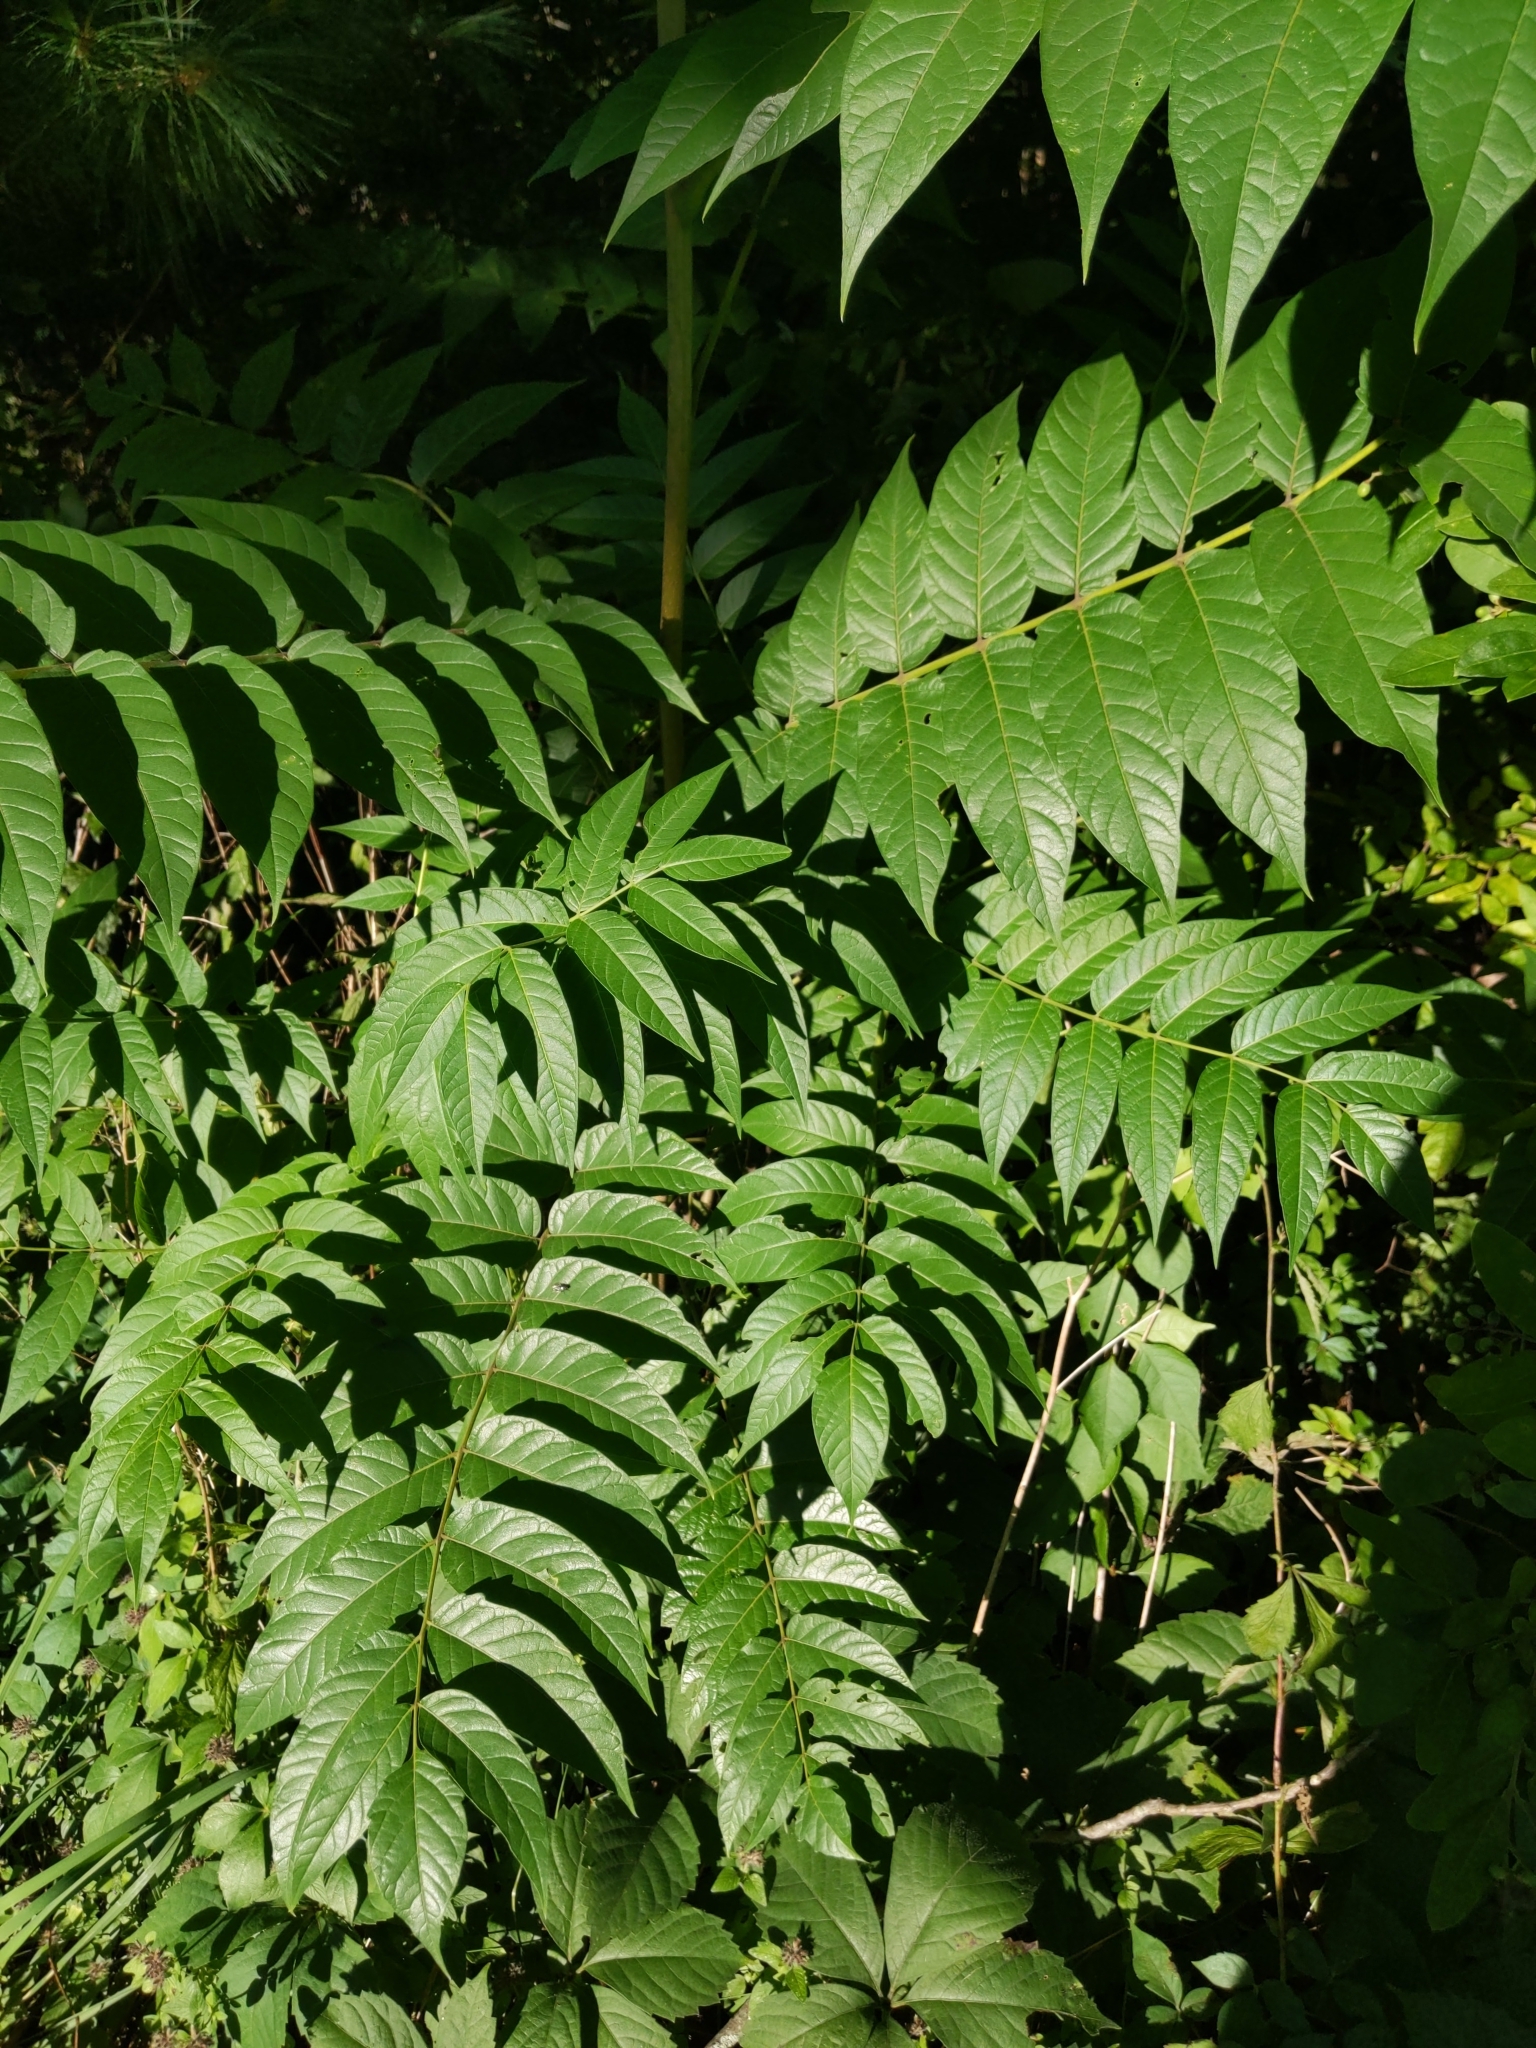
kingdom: Plantae
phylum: Tracheophyta
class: Magnoliopsida
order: Sapindales
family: Simaroubaceae
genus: Ailanthus
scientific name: Ailanthus altissima
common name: Tree-of-heaven
